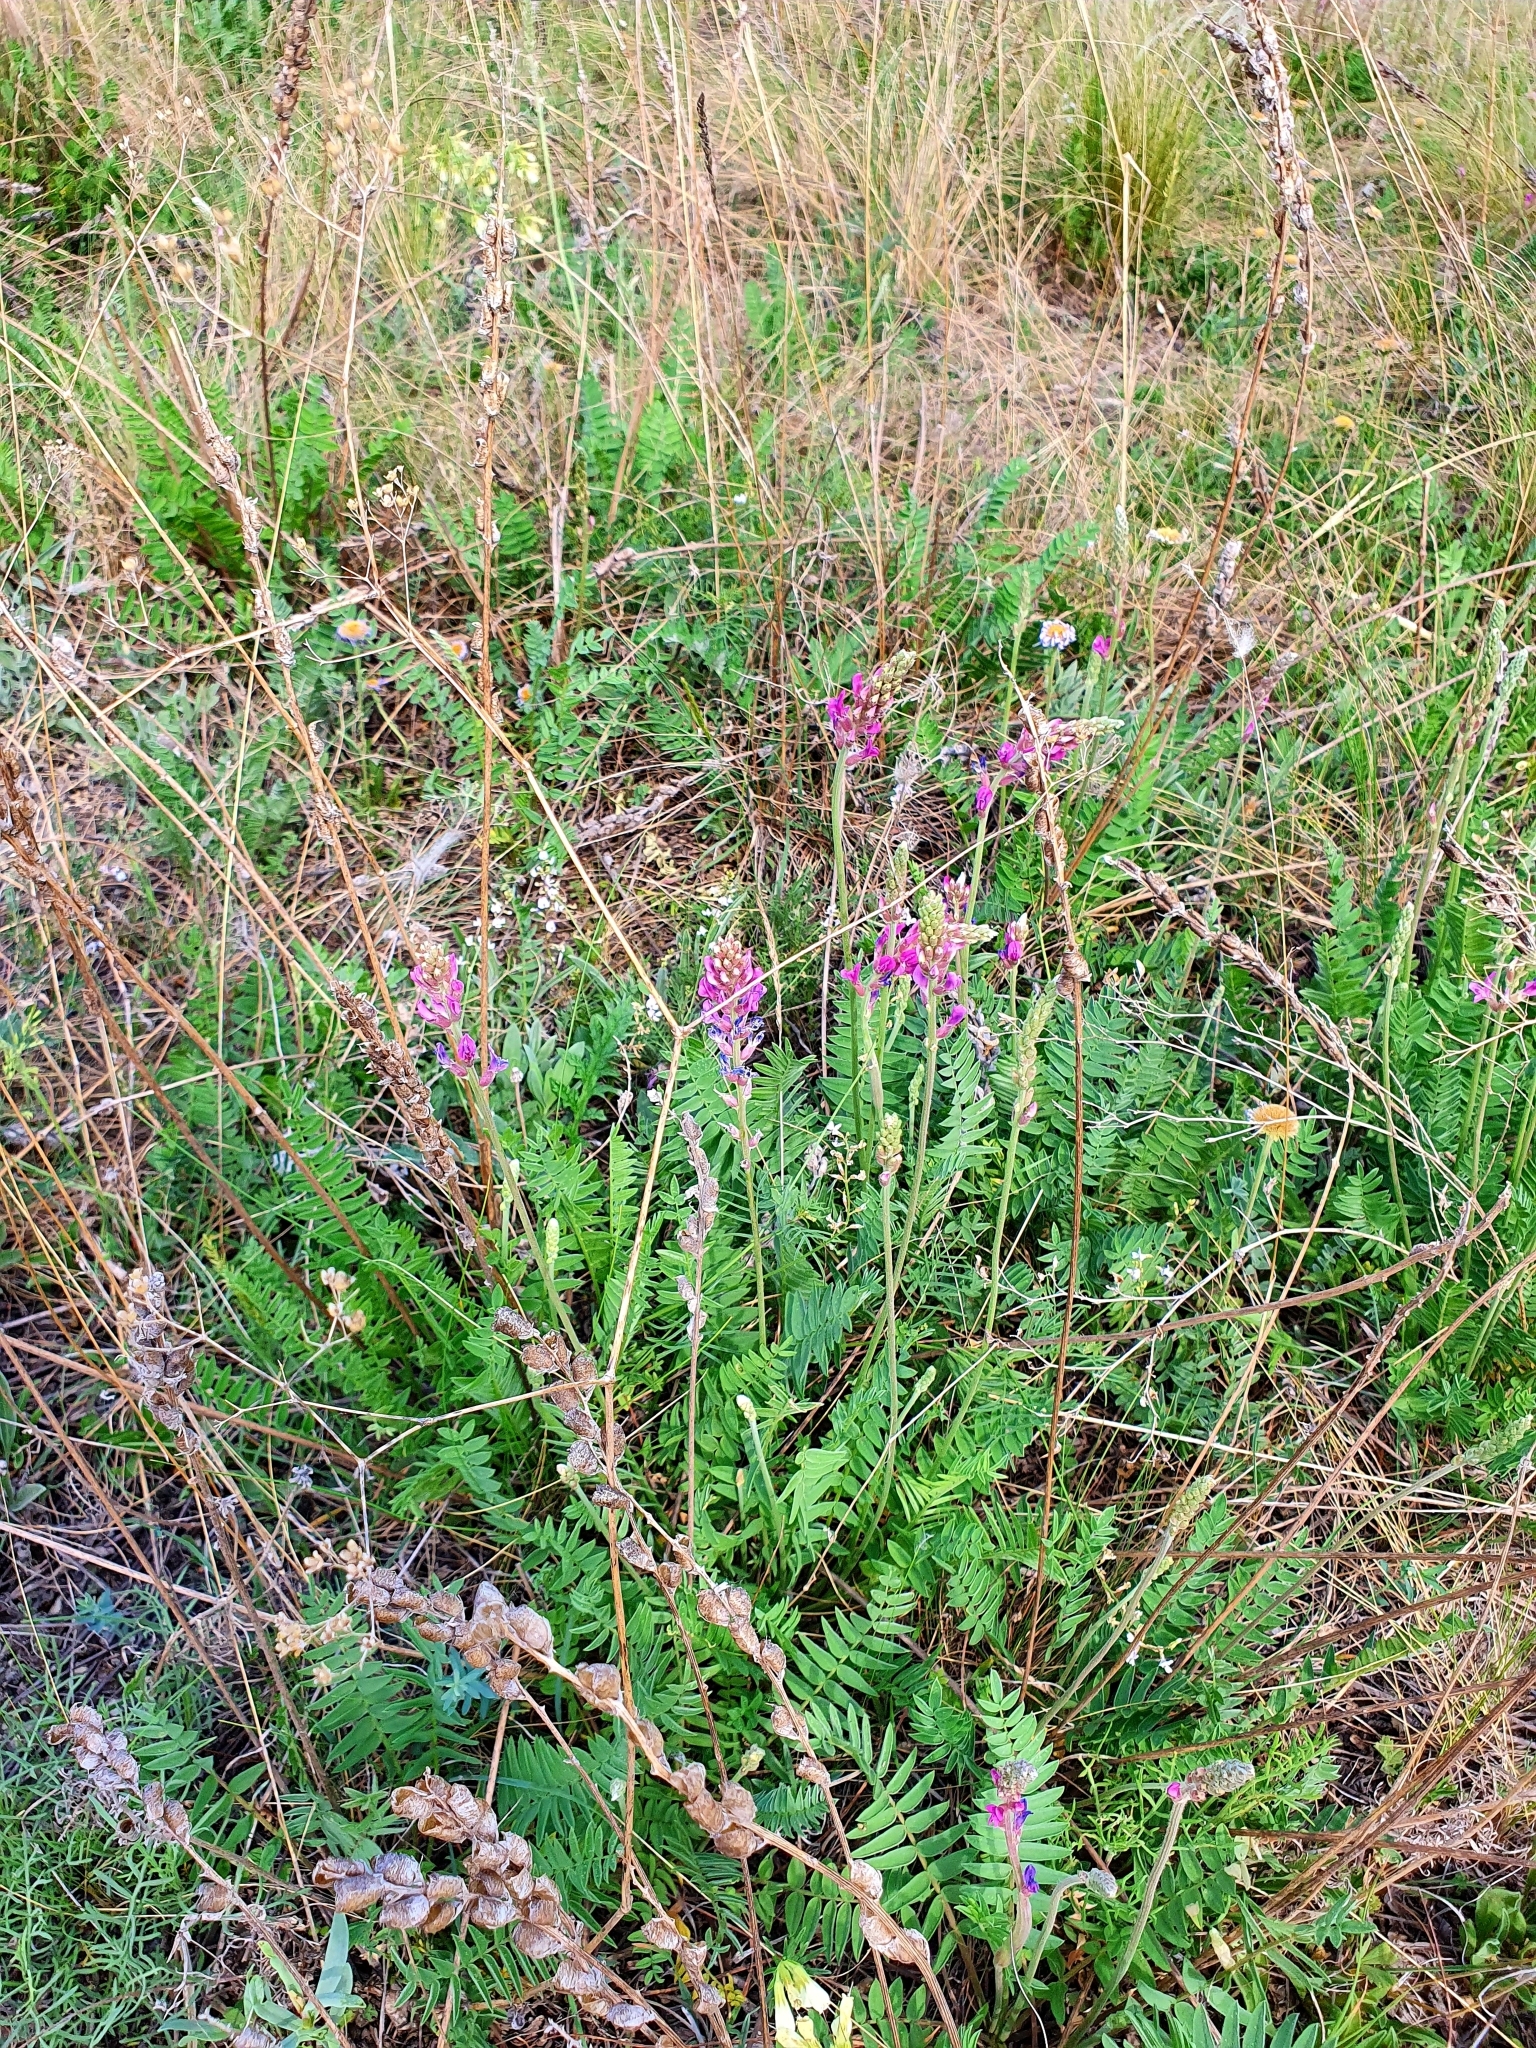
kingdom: Plantae
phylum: Tracheophyta
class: Magnoliopsida
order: Fabales
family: Fabaceae
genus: Oxytropis
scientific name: Oxytropis knjazevii
